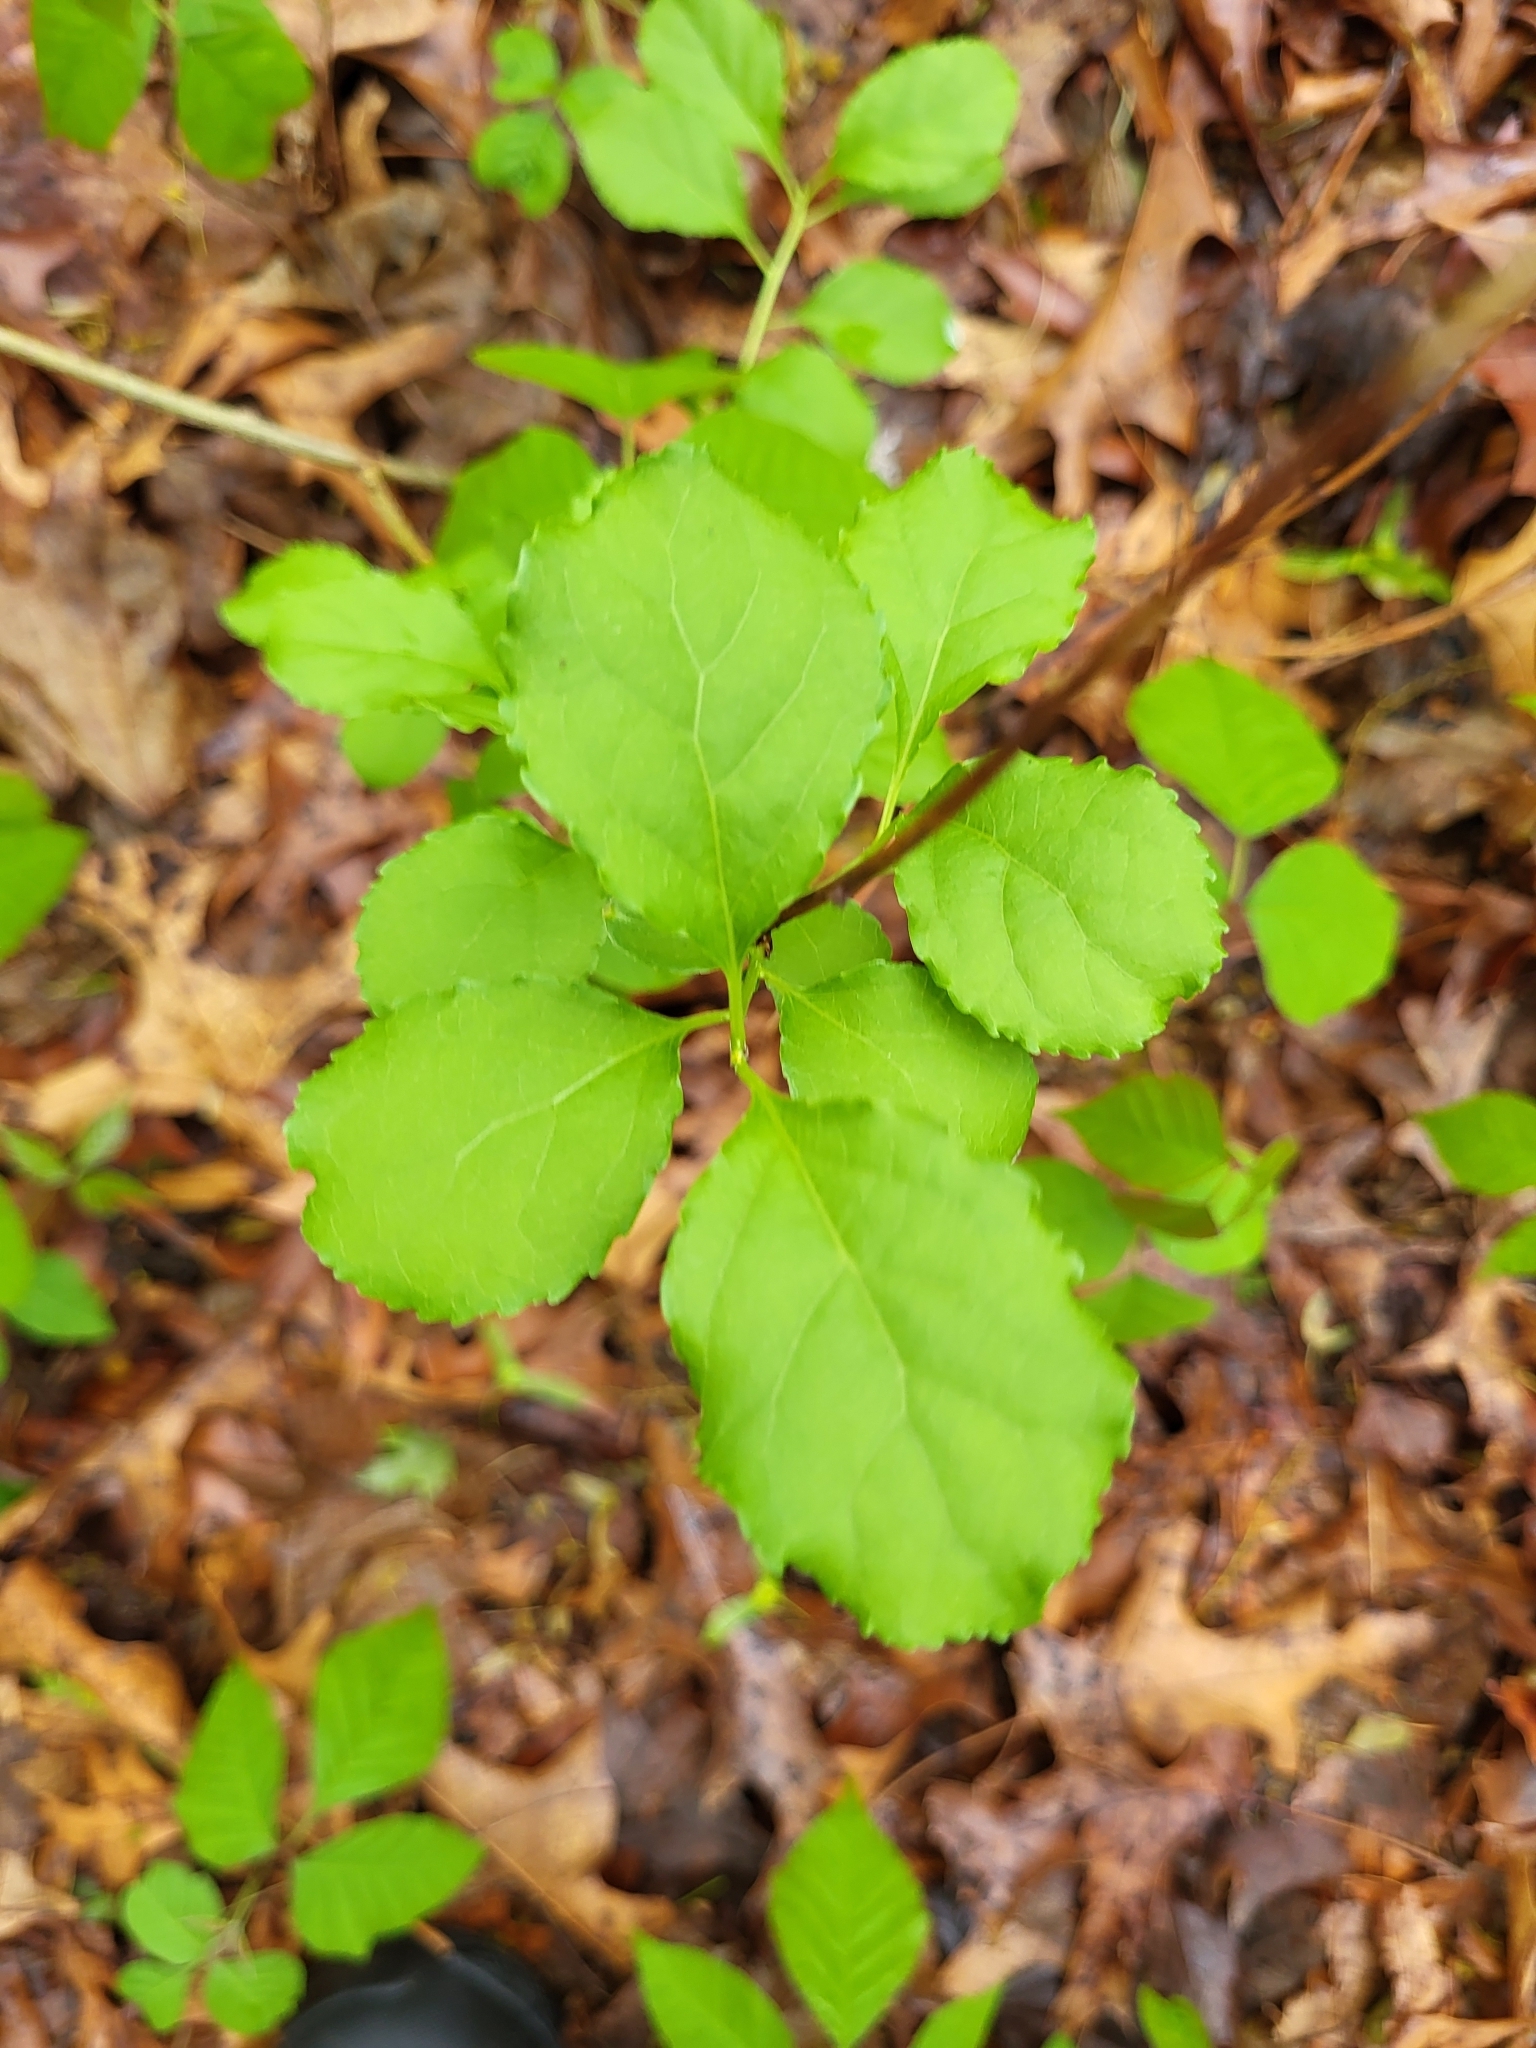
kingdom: Plantae
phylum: Tracheophyta
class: Magnoliopsida
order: Celastrales
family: Celastraceae
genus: Celastrus
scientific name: Celastrus orbiculatus
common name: Oriental bittersweet
